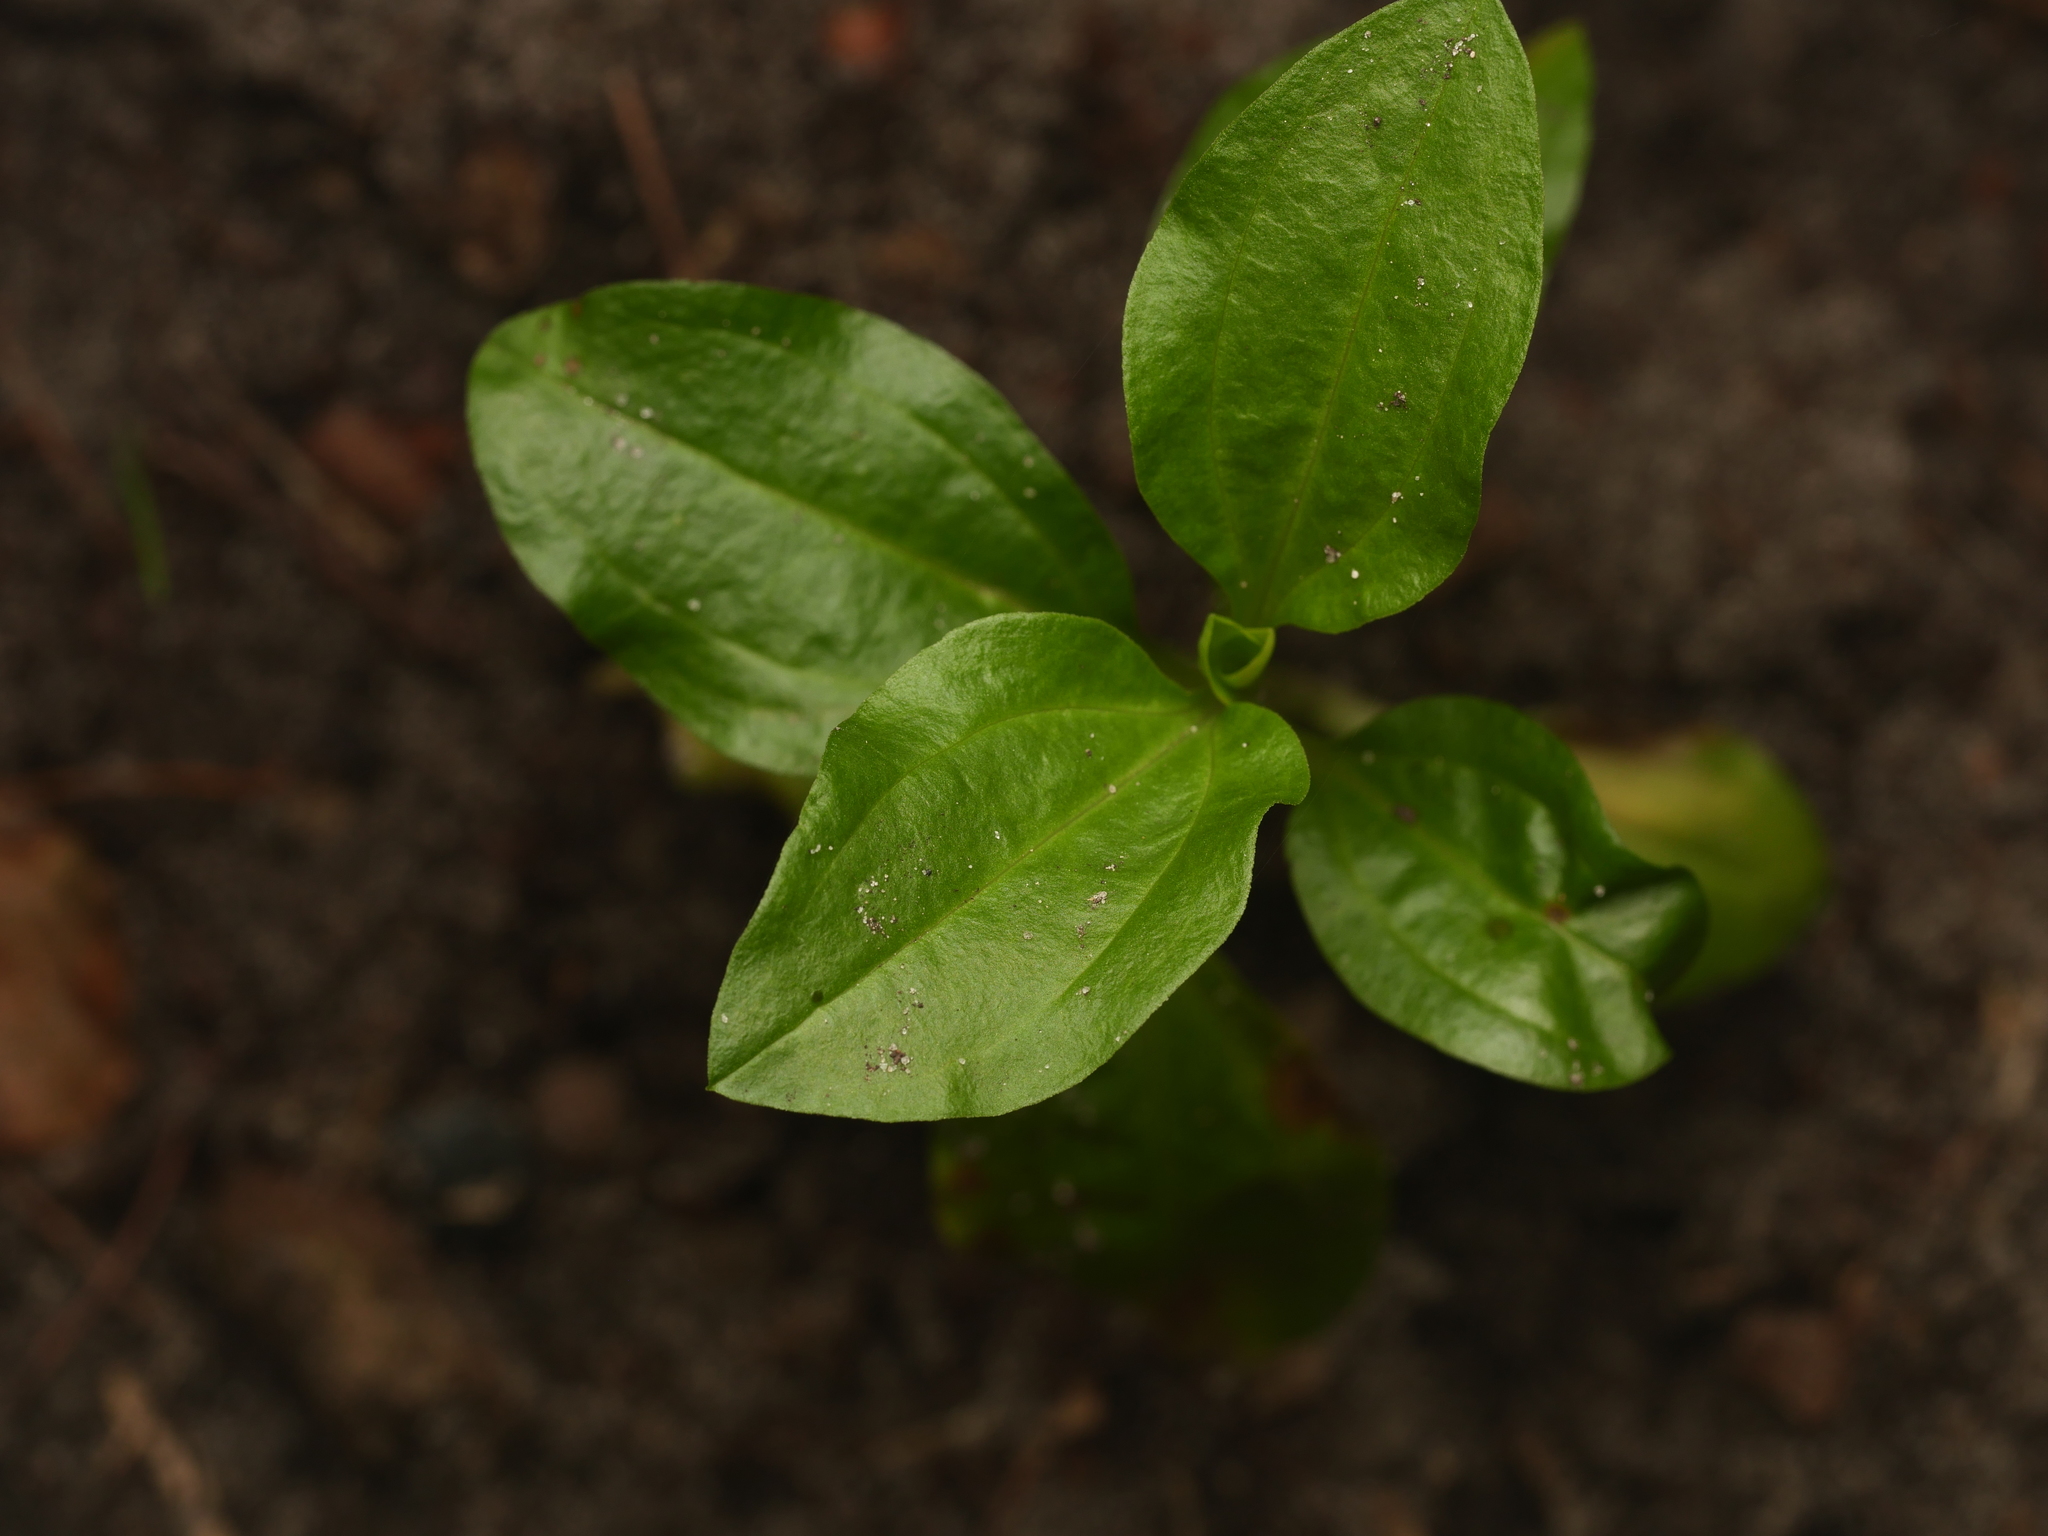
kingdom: Plantae
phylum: Tracheophyta
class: Magnoliopsida
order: Caryophyllales
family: Caryophyllaceae
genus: Saponaria
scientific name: Saponaria officinalis
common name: Soapwort
